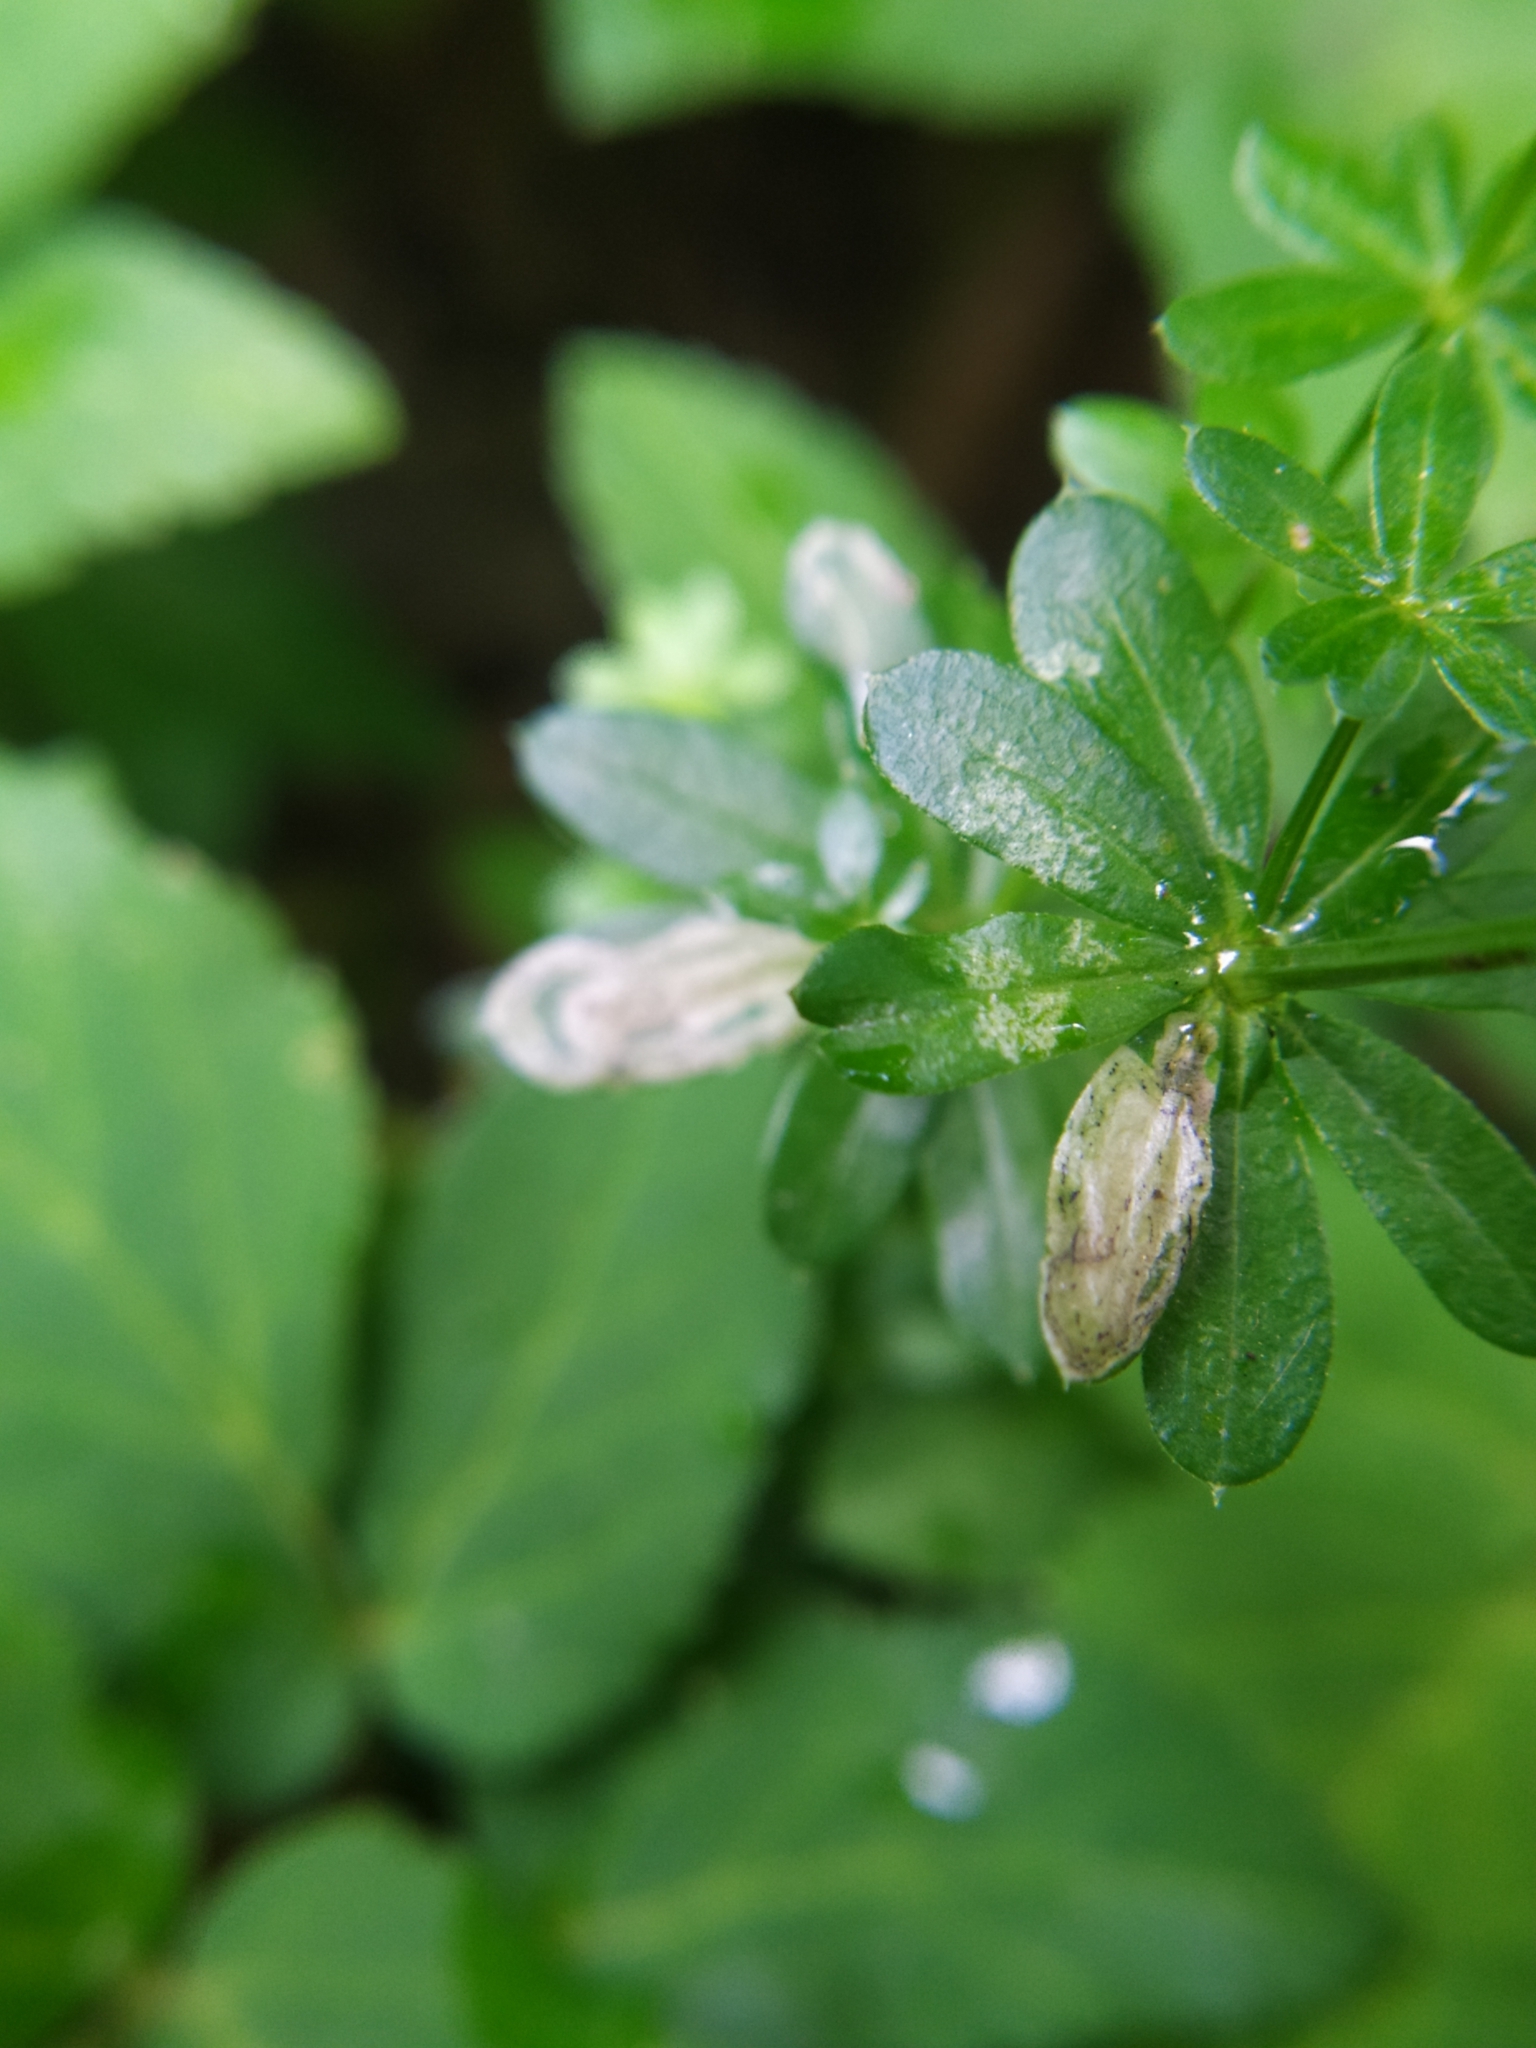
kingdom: Plantae
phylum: Tracheophyta
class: Magnoliopsida
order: Gentianales
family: Rubiaceae
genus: Galium
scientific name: Galium mollugo
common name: Hedge bedstraw
